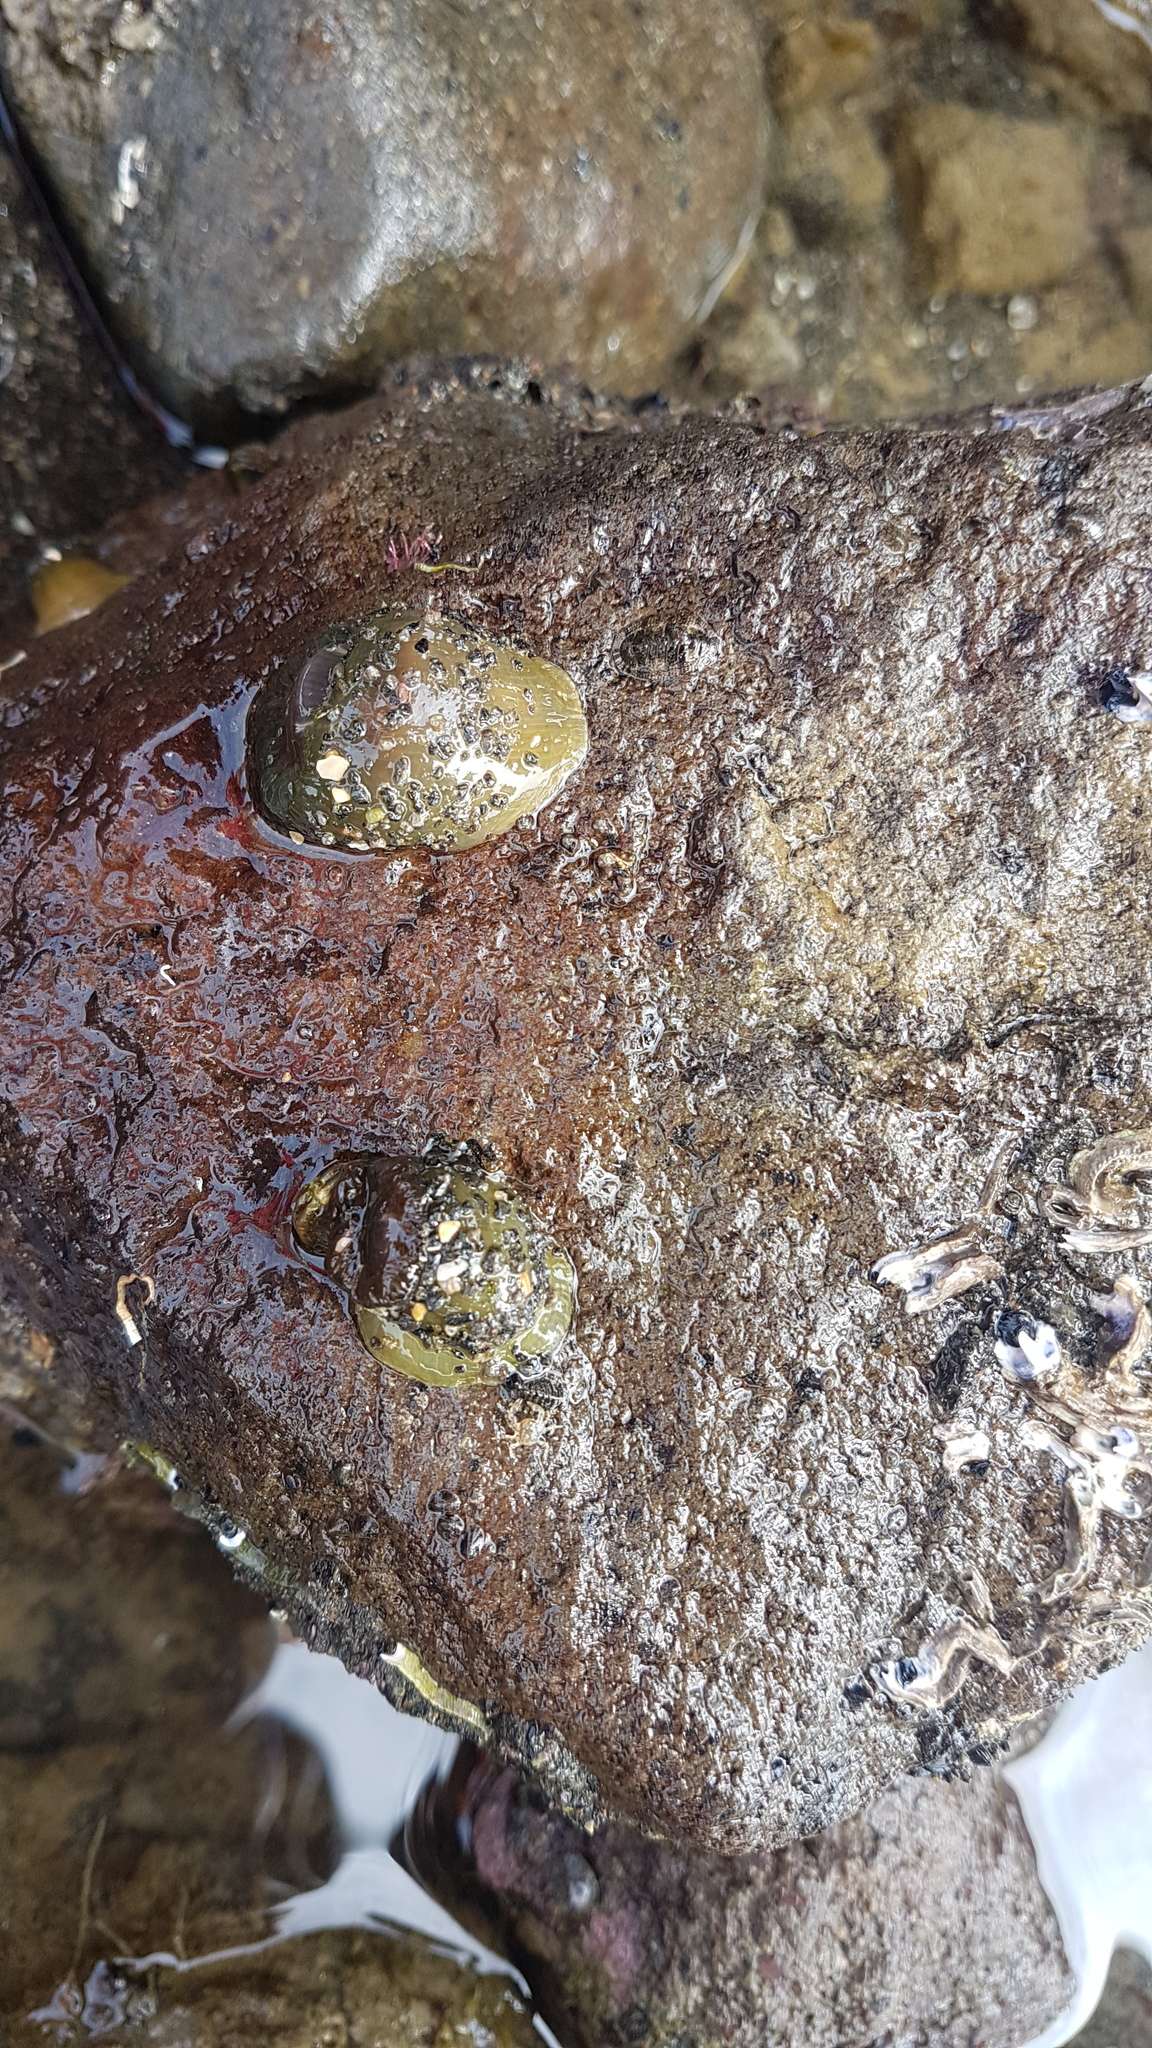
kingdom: Animalia
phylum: Cnidaria
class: Anthozoa
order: Actiniaria
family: Actiniidae
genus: Isactinia
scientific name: Isactinia olivacea
